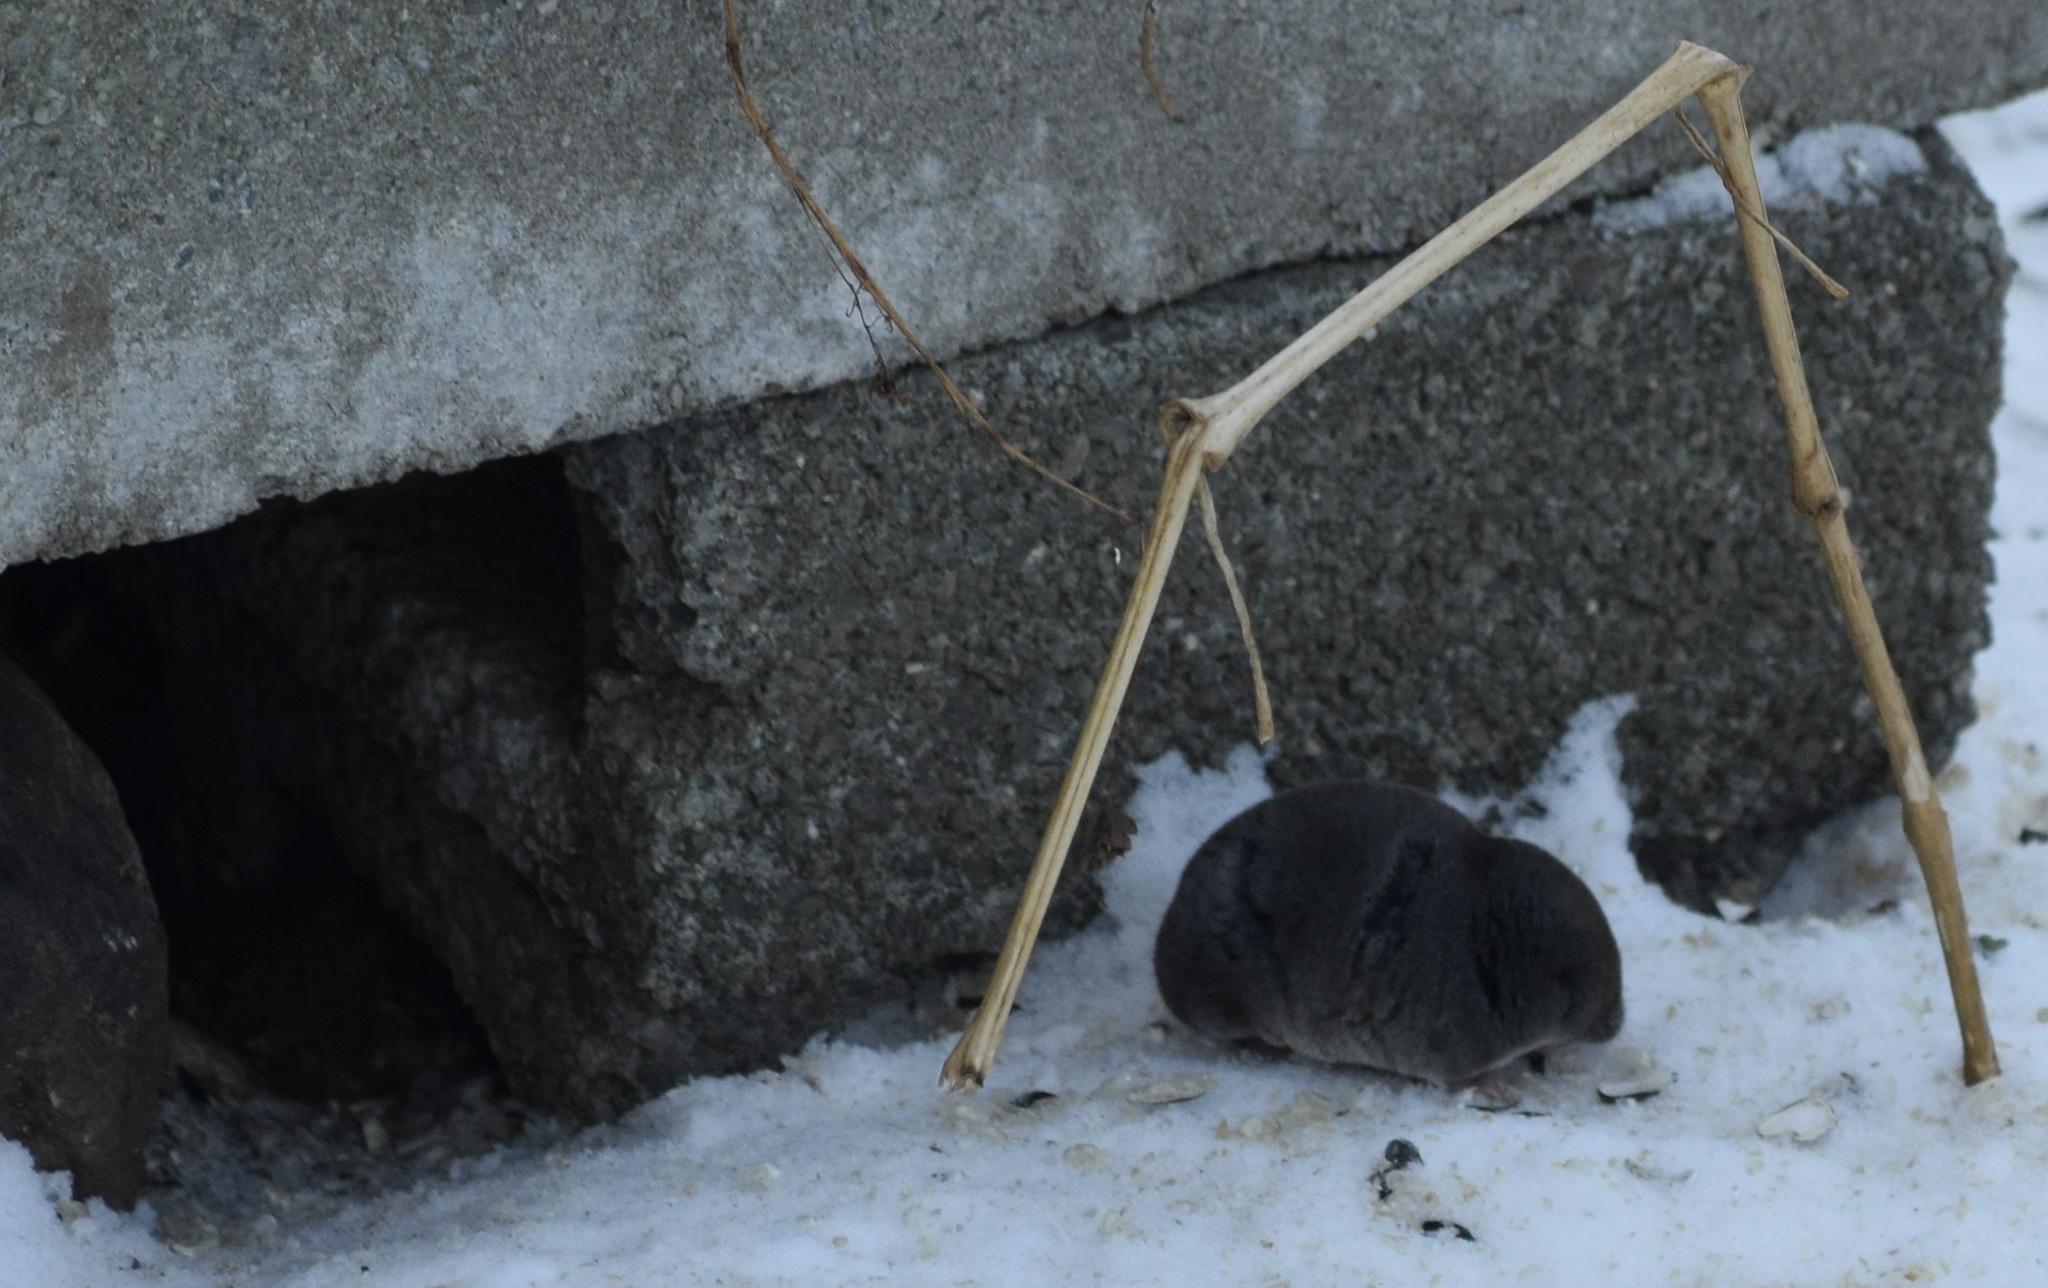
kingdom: Animalia
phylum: Chordata
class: Mammalia
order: Soricomorpha
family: Soricidae
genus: Blarina
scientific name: Blarina brevicauda
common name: Northern short-tailed shrew
